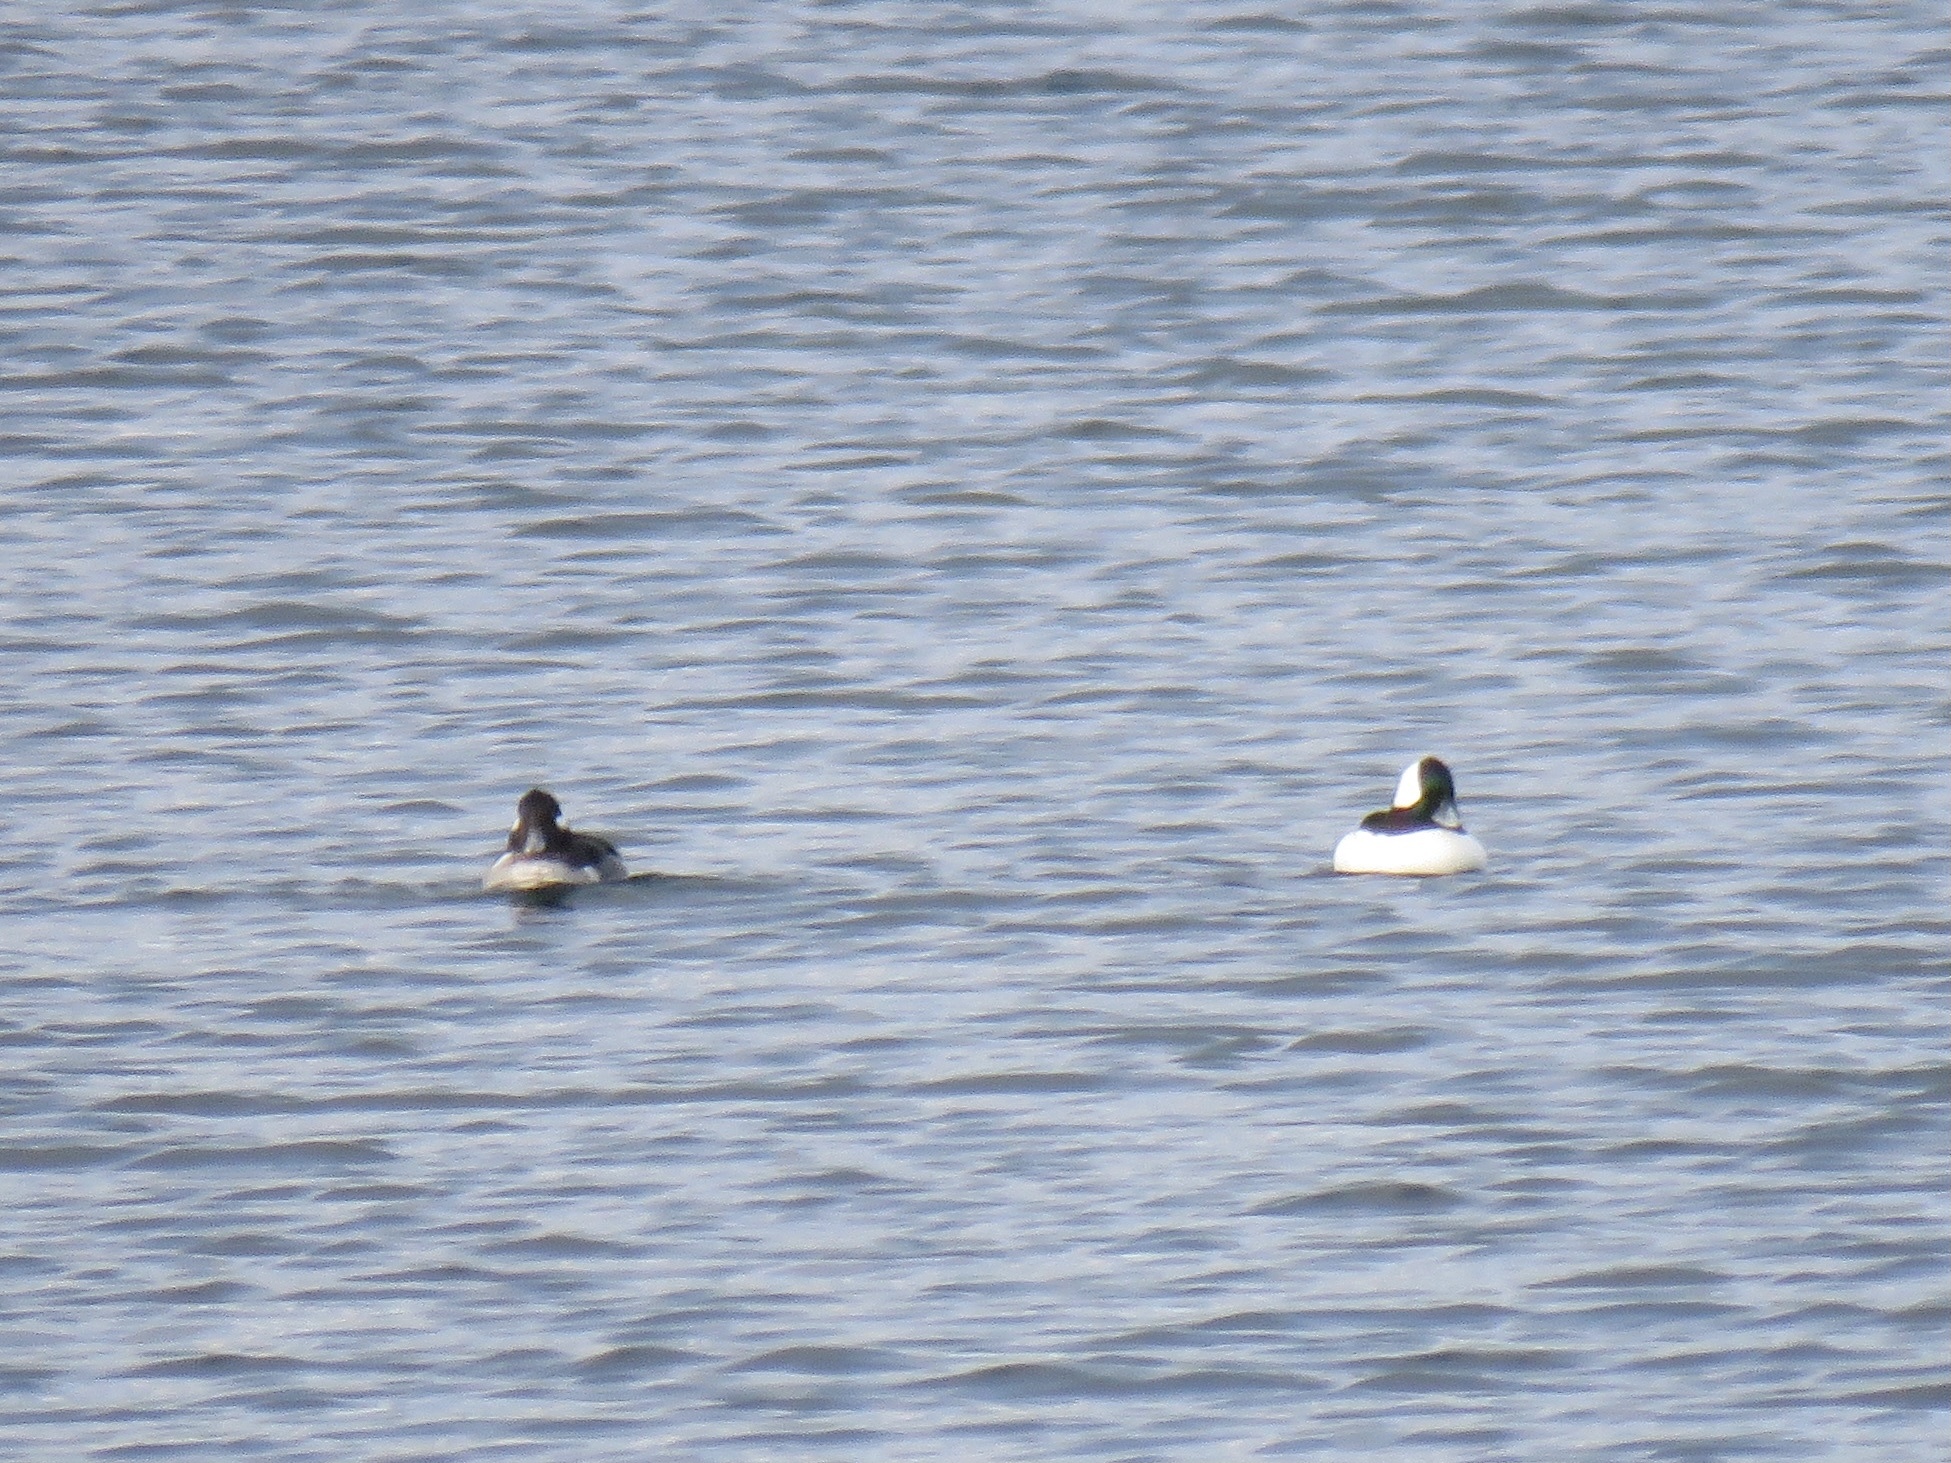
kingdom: Animalia
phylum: Chordata
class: Aves
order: Anseriformes
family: Anatidae
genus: Bucephala
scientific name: Bucephala albeola
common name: Bufflehead
